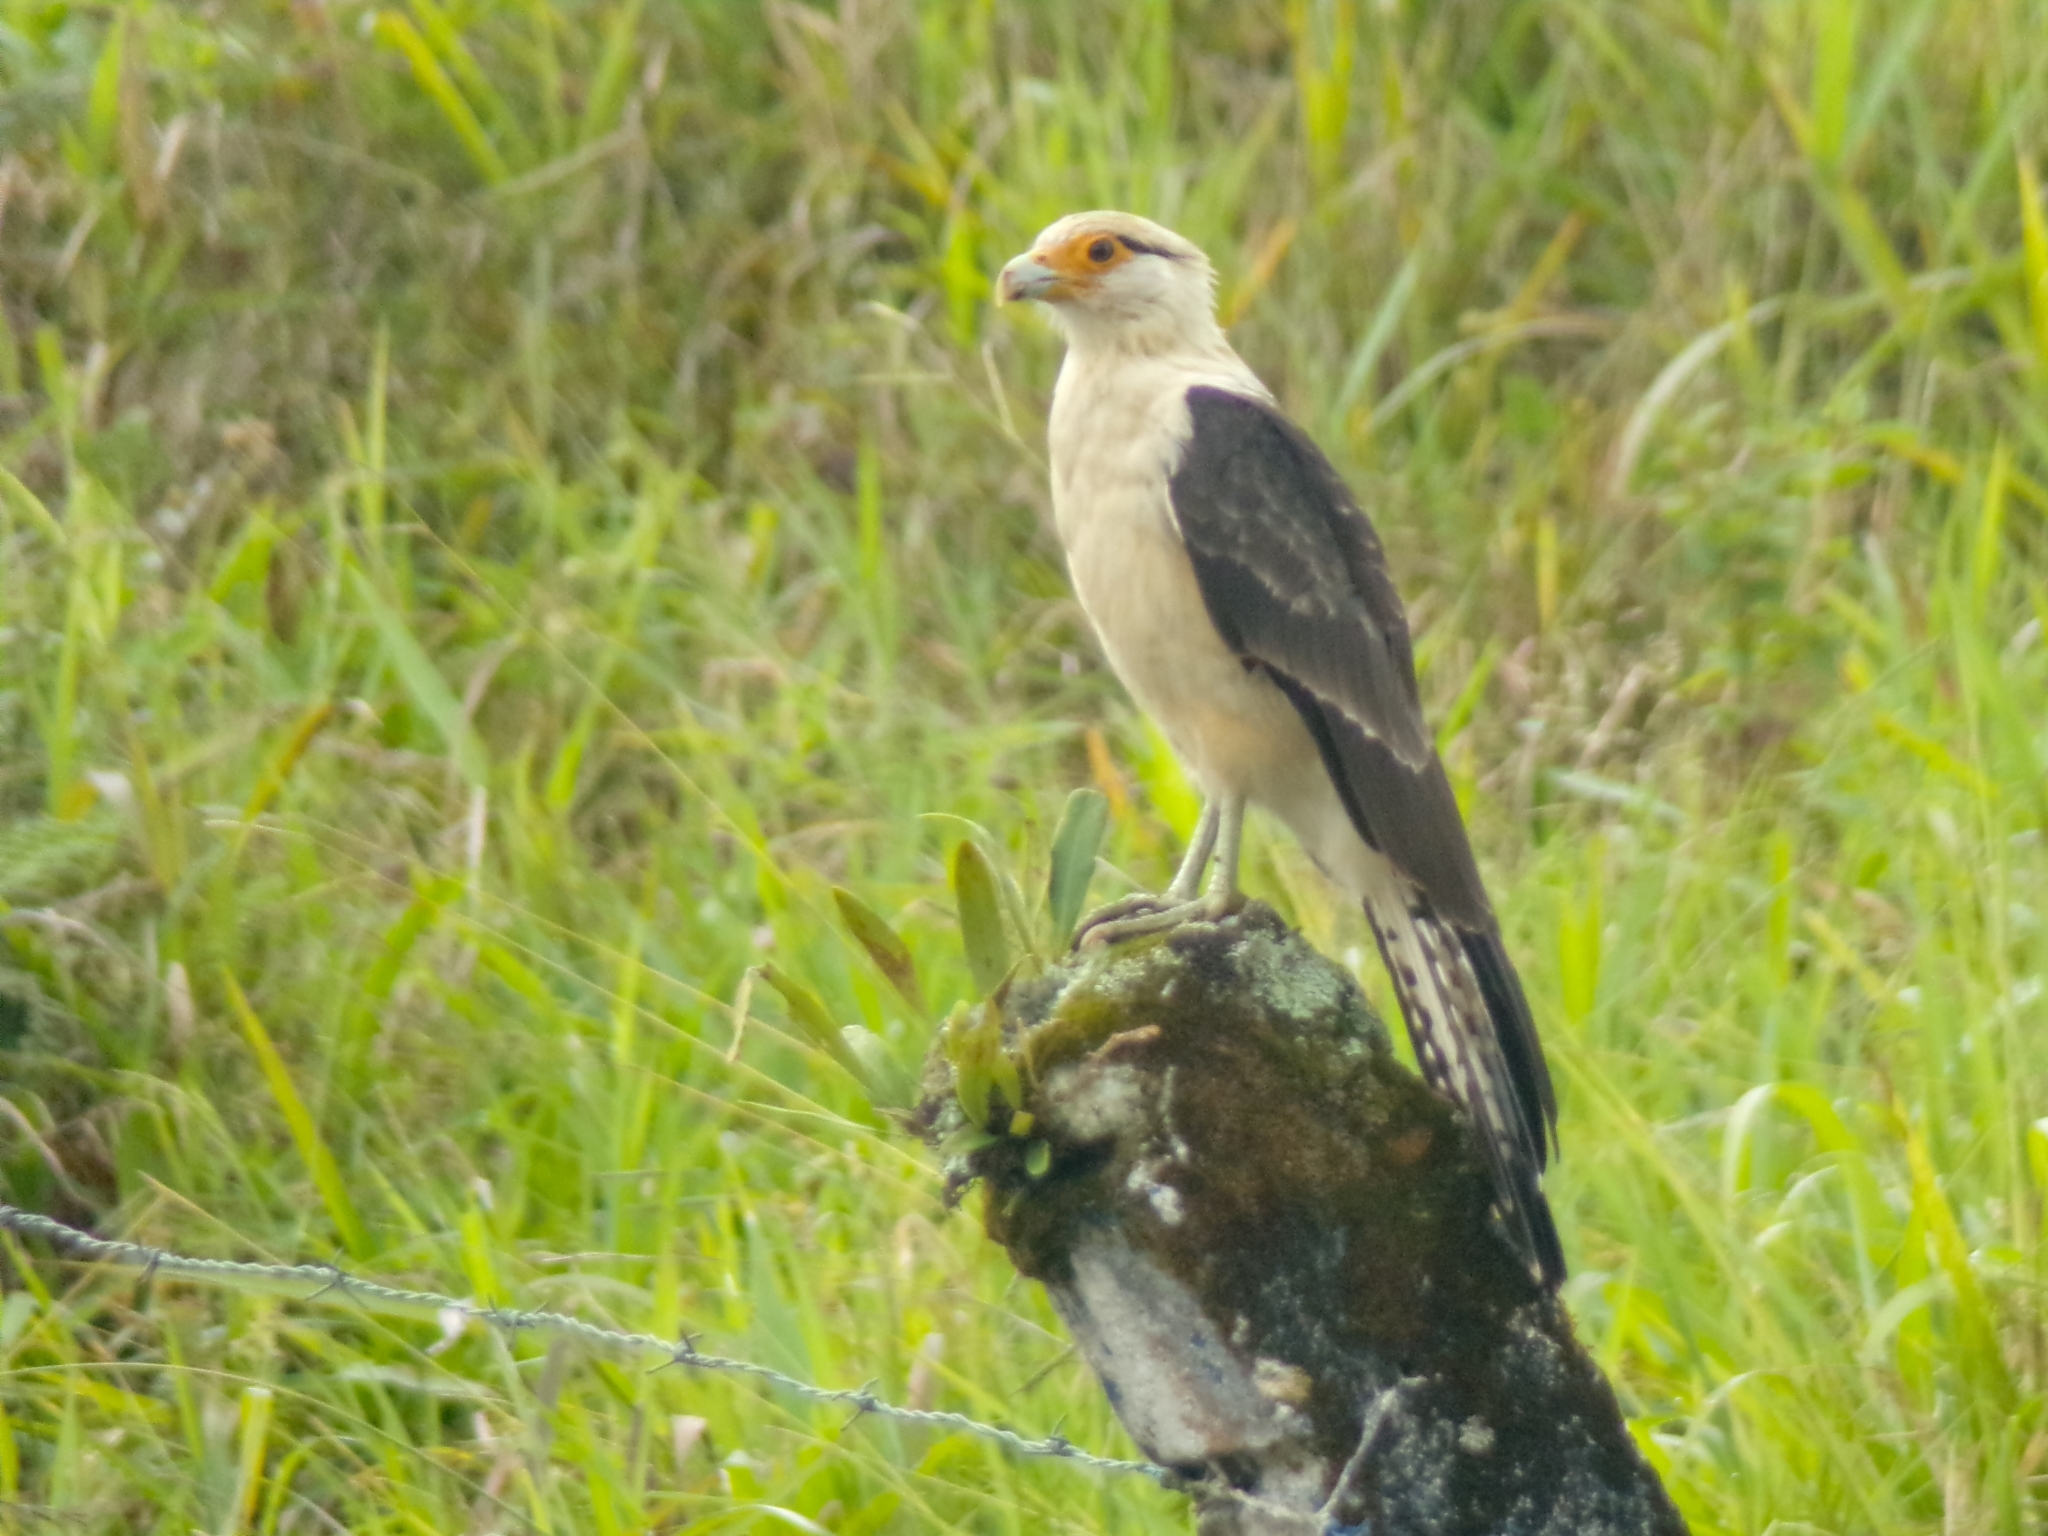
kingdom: Animalia
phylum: Chordata
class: Aves
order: Falconiformes
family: Falconidae
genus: Daptrius
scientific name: Daptrius
